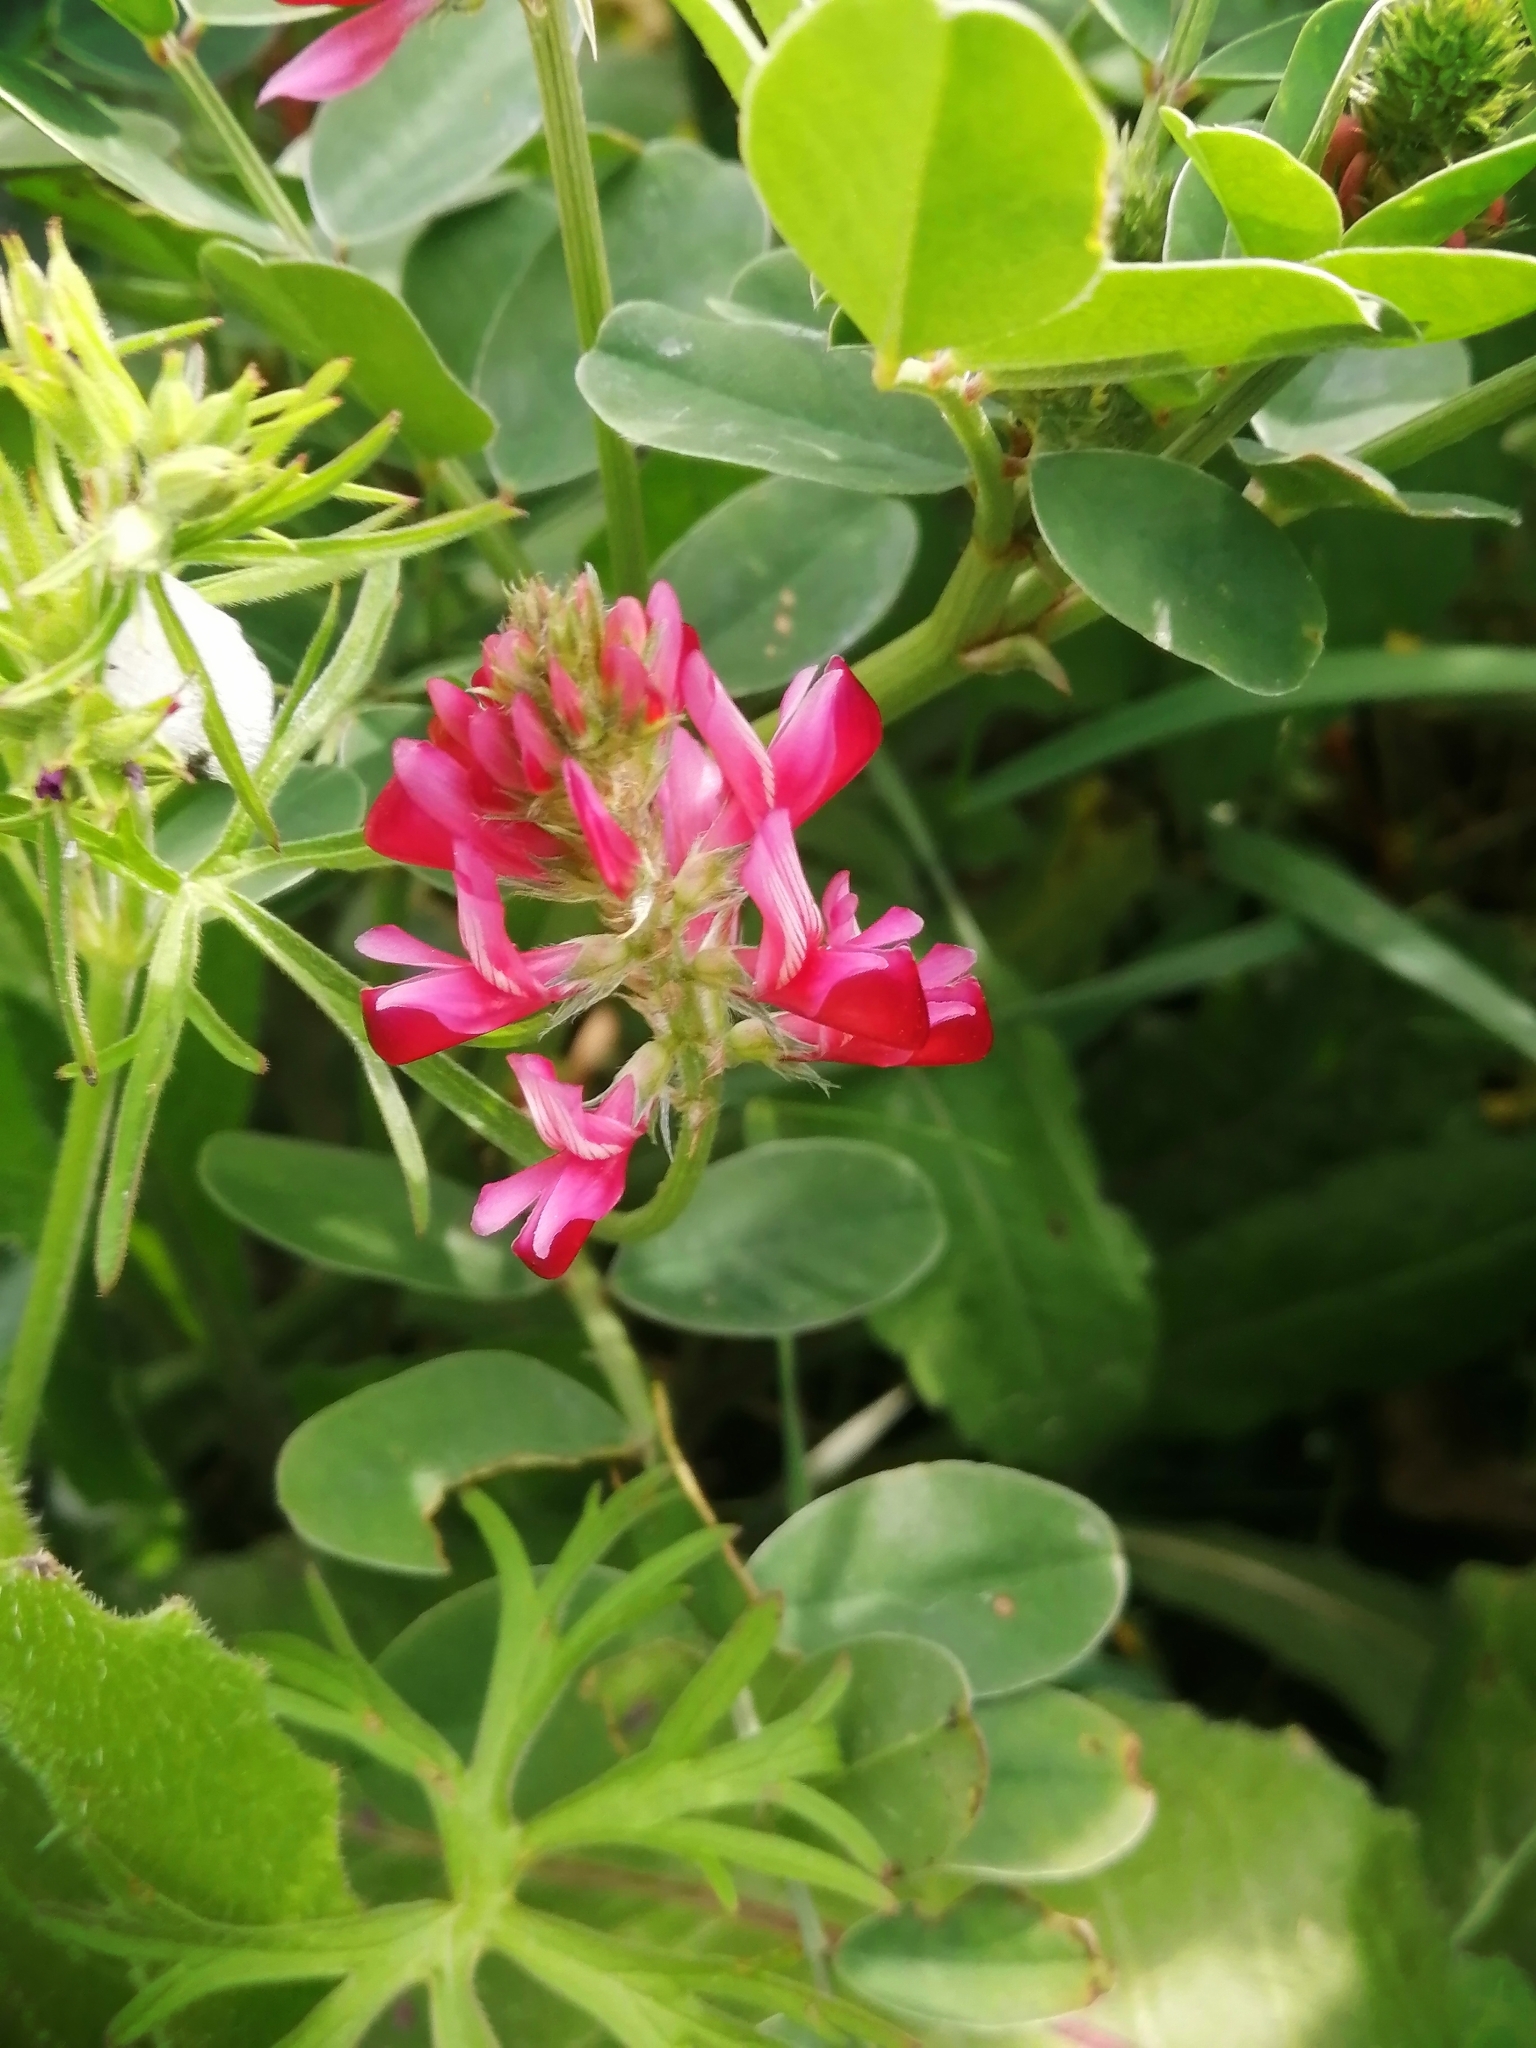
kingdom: Plantae
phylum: Tracheophyta
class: Magnoliopsida
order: Fabales
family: Fabaceae
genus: Sulla
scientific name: Sulla coronaria
